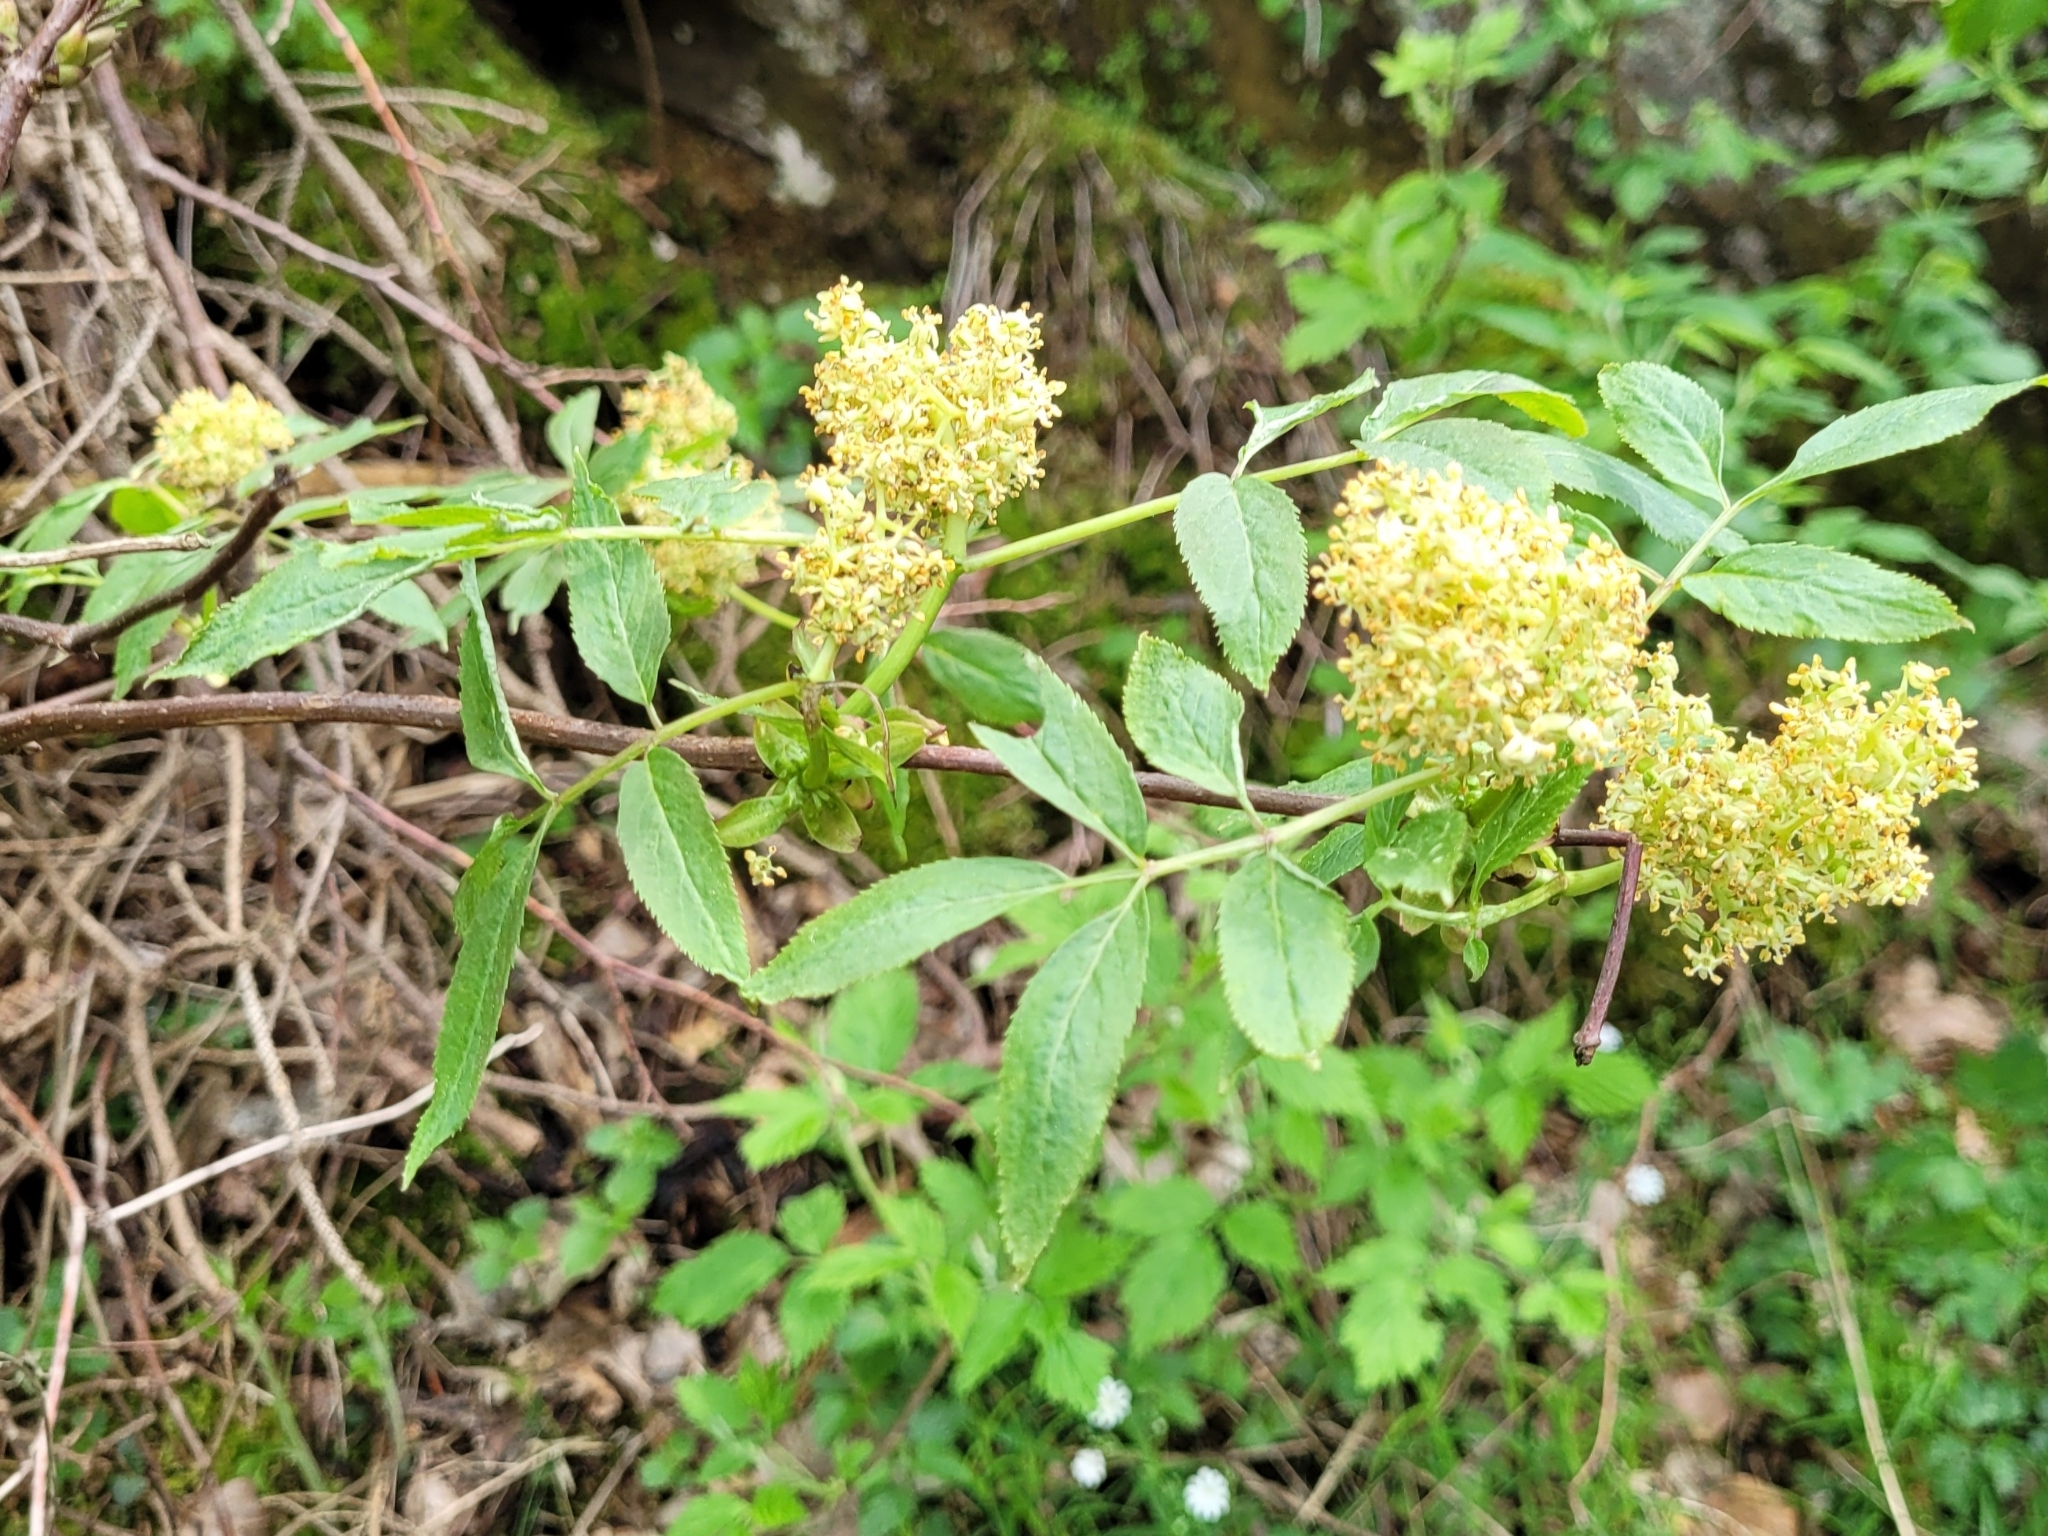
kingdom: Plantae
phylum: Tracheophyta
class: Magnoliopsida
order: Dipsacales
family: Viburnaceae
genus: Sambucus
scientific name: Sambucus racemosa
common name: Red-berried elder
